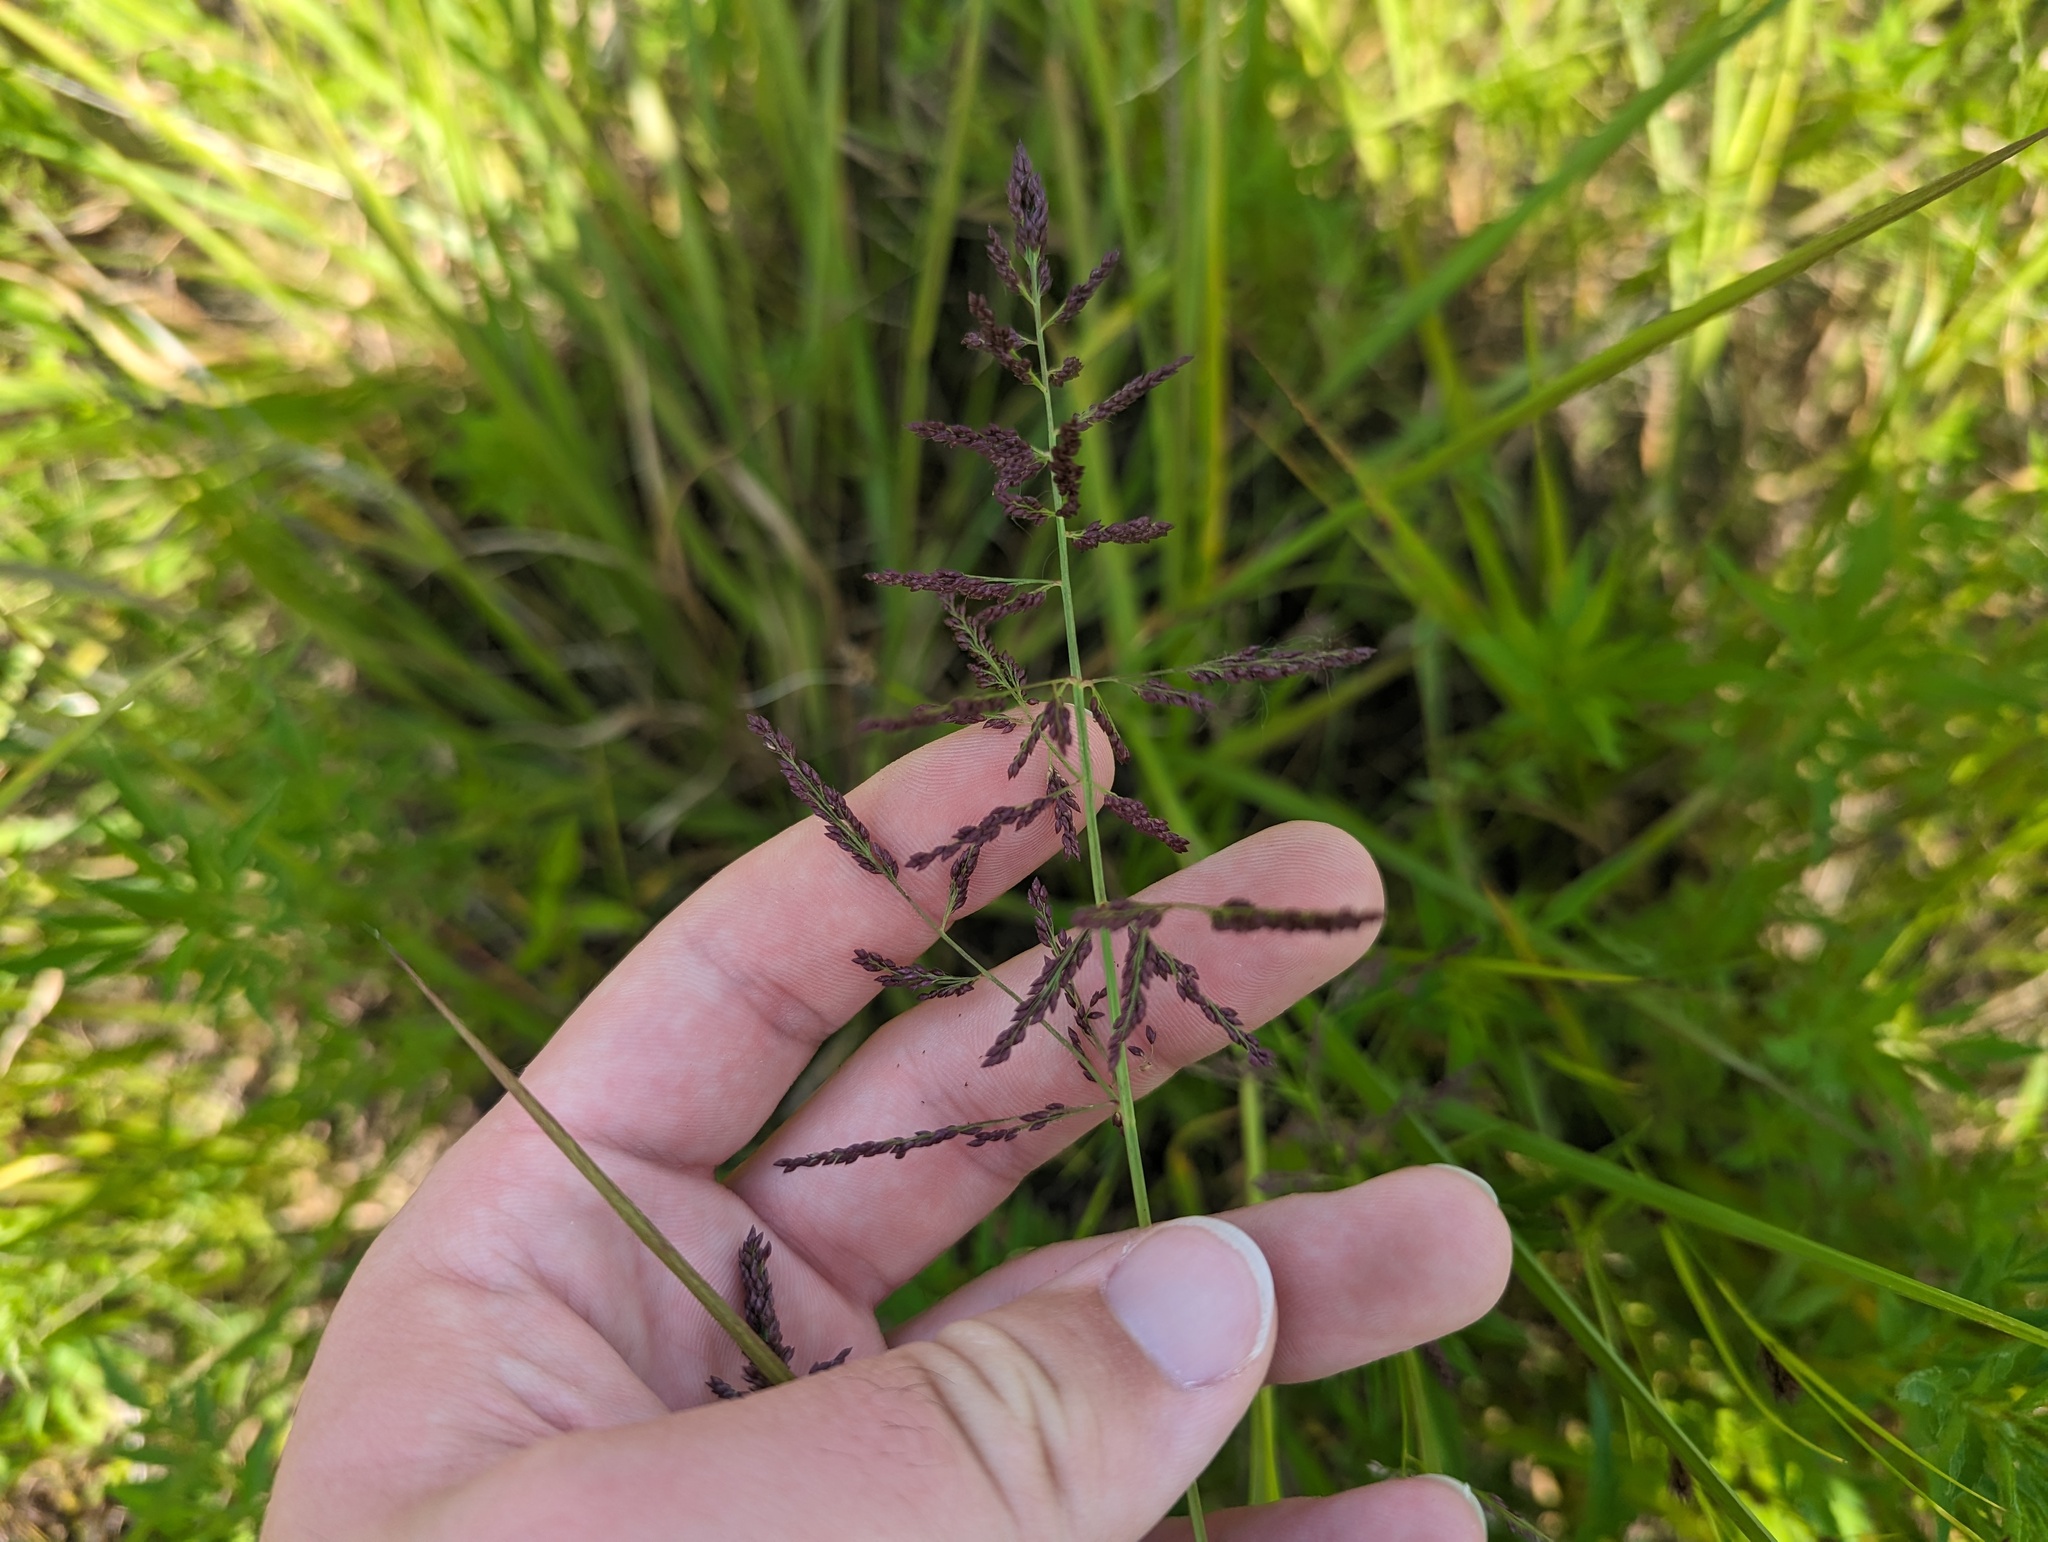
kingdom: Plantae
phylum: Tracheophyta
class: Liliopsida
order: Poales
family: Poaceae
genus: Coleataenia
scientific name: Coleataenia rigidula
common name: Redtop panicgrass
